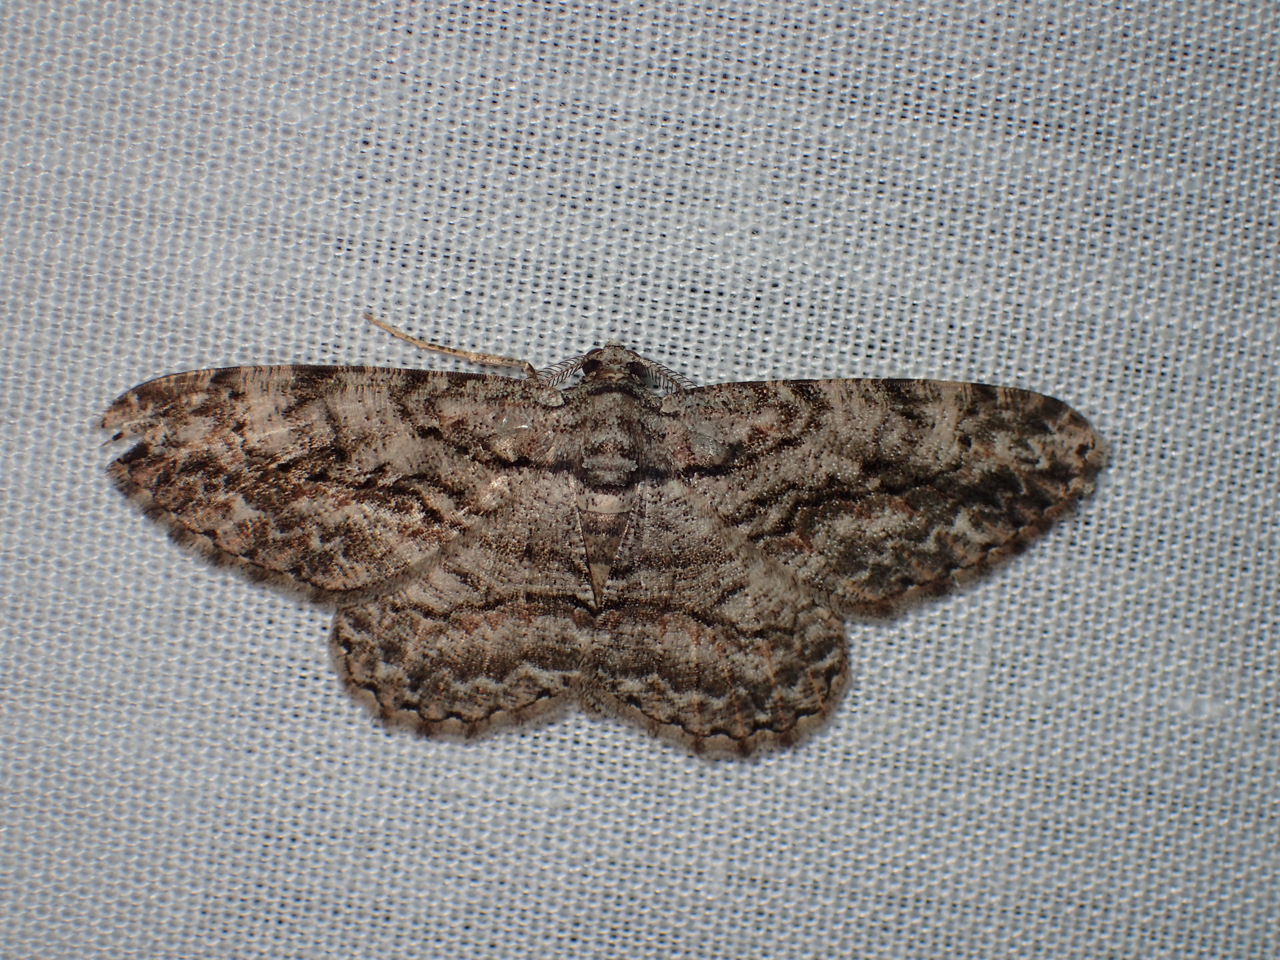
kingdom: Animalia
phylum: Arthropoda
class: Insecta
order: Lepidoptera
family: Geometridae
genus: Anavitrinella
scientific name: Anavitrinella pampinaria
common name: Common gray
